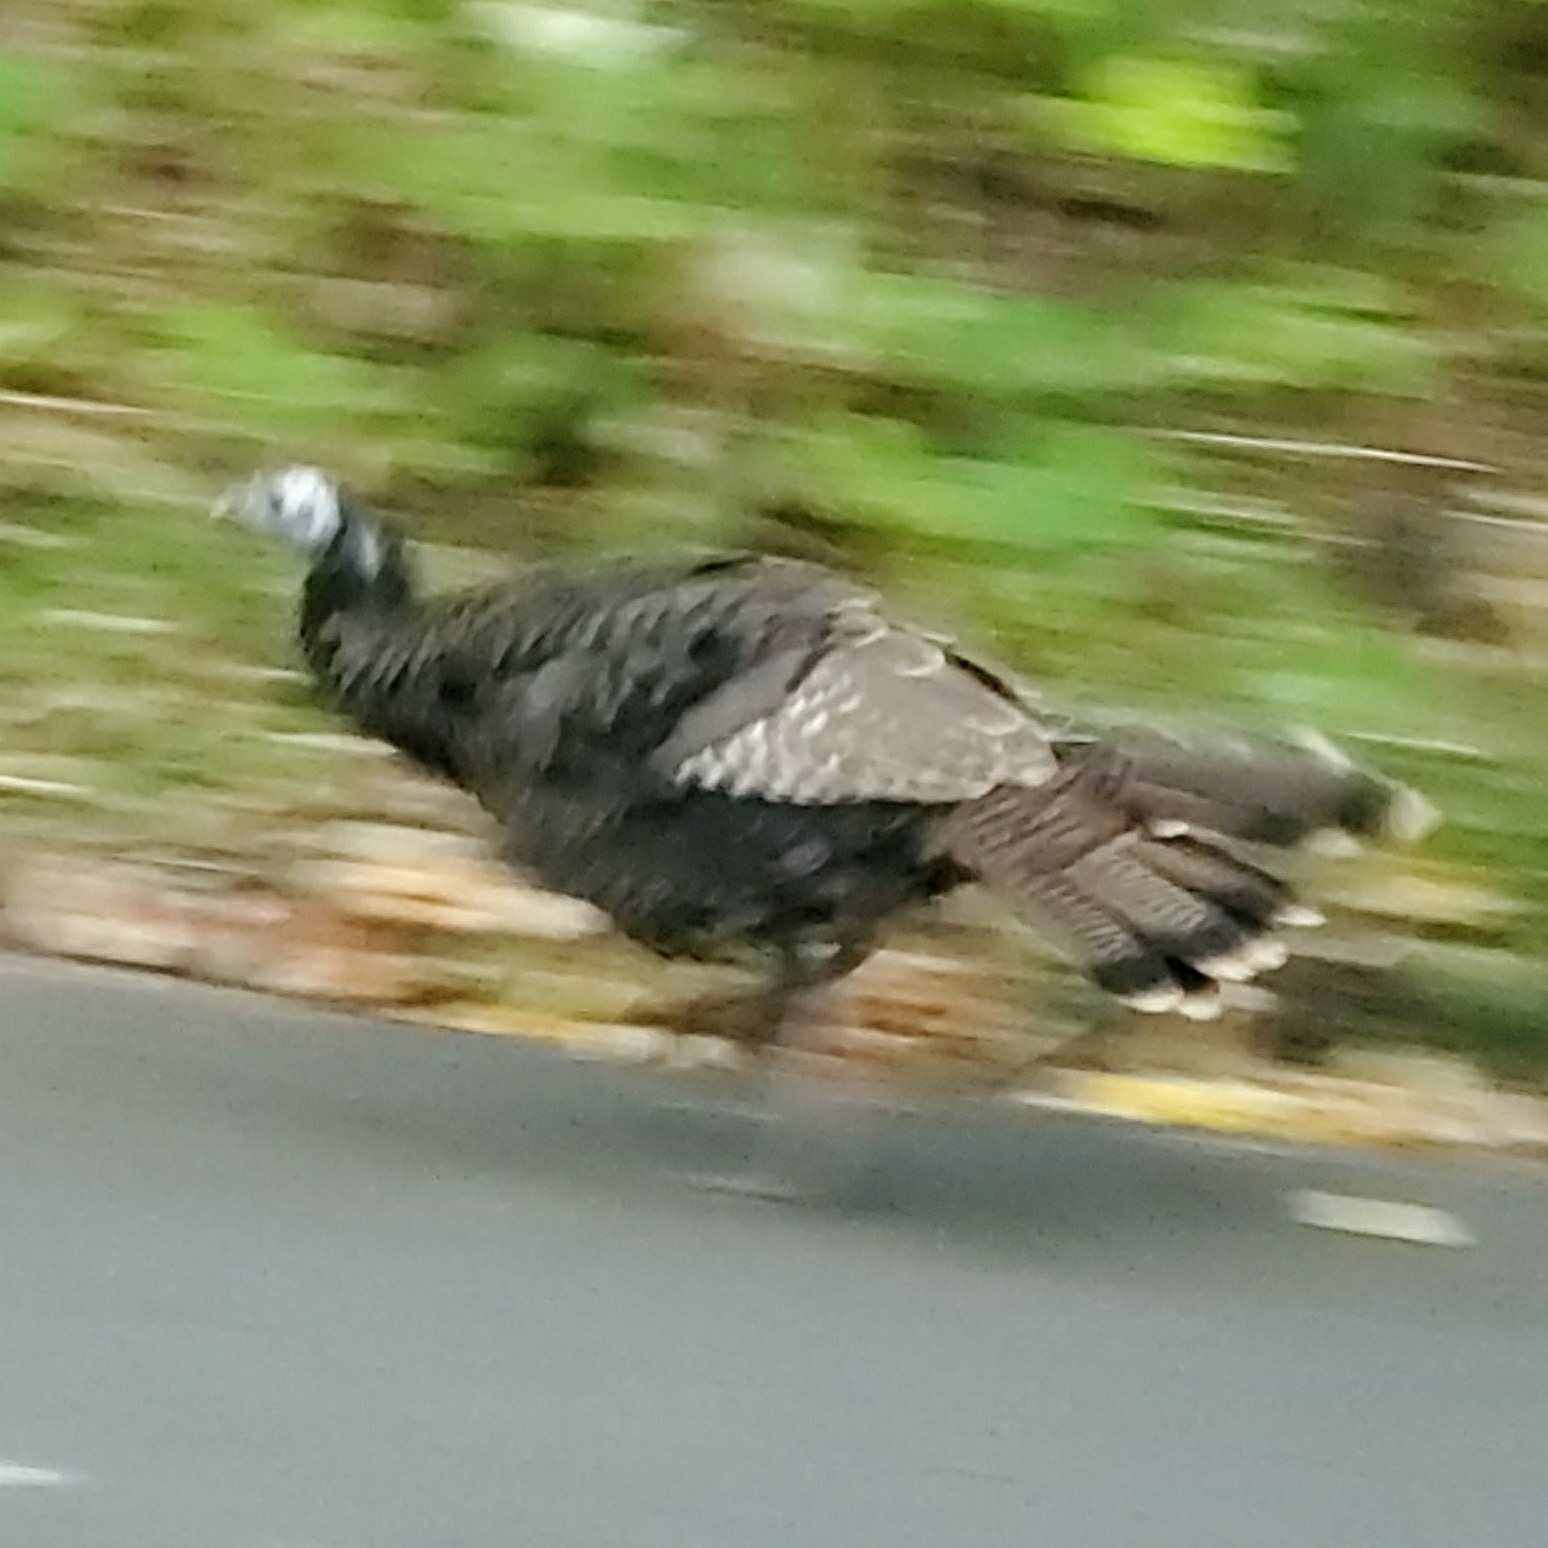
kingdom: Animalia
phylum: Chordata
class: Aves
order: Galliformes
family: Phasianidae
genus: Meleagris
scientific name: Meleagris gallopavo
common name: Wild turkey
